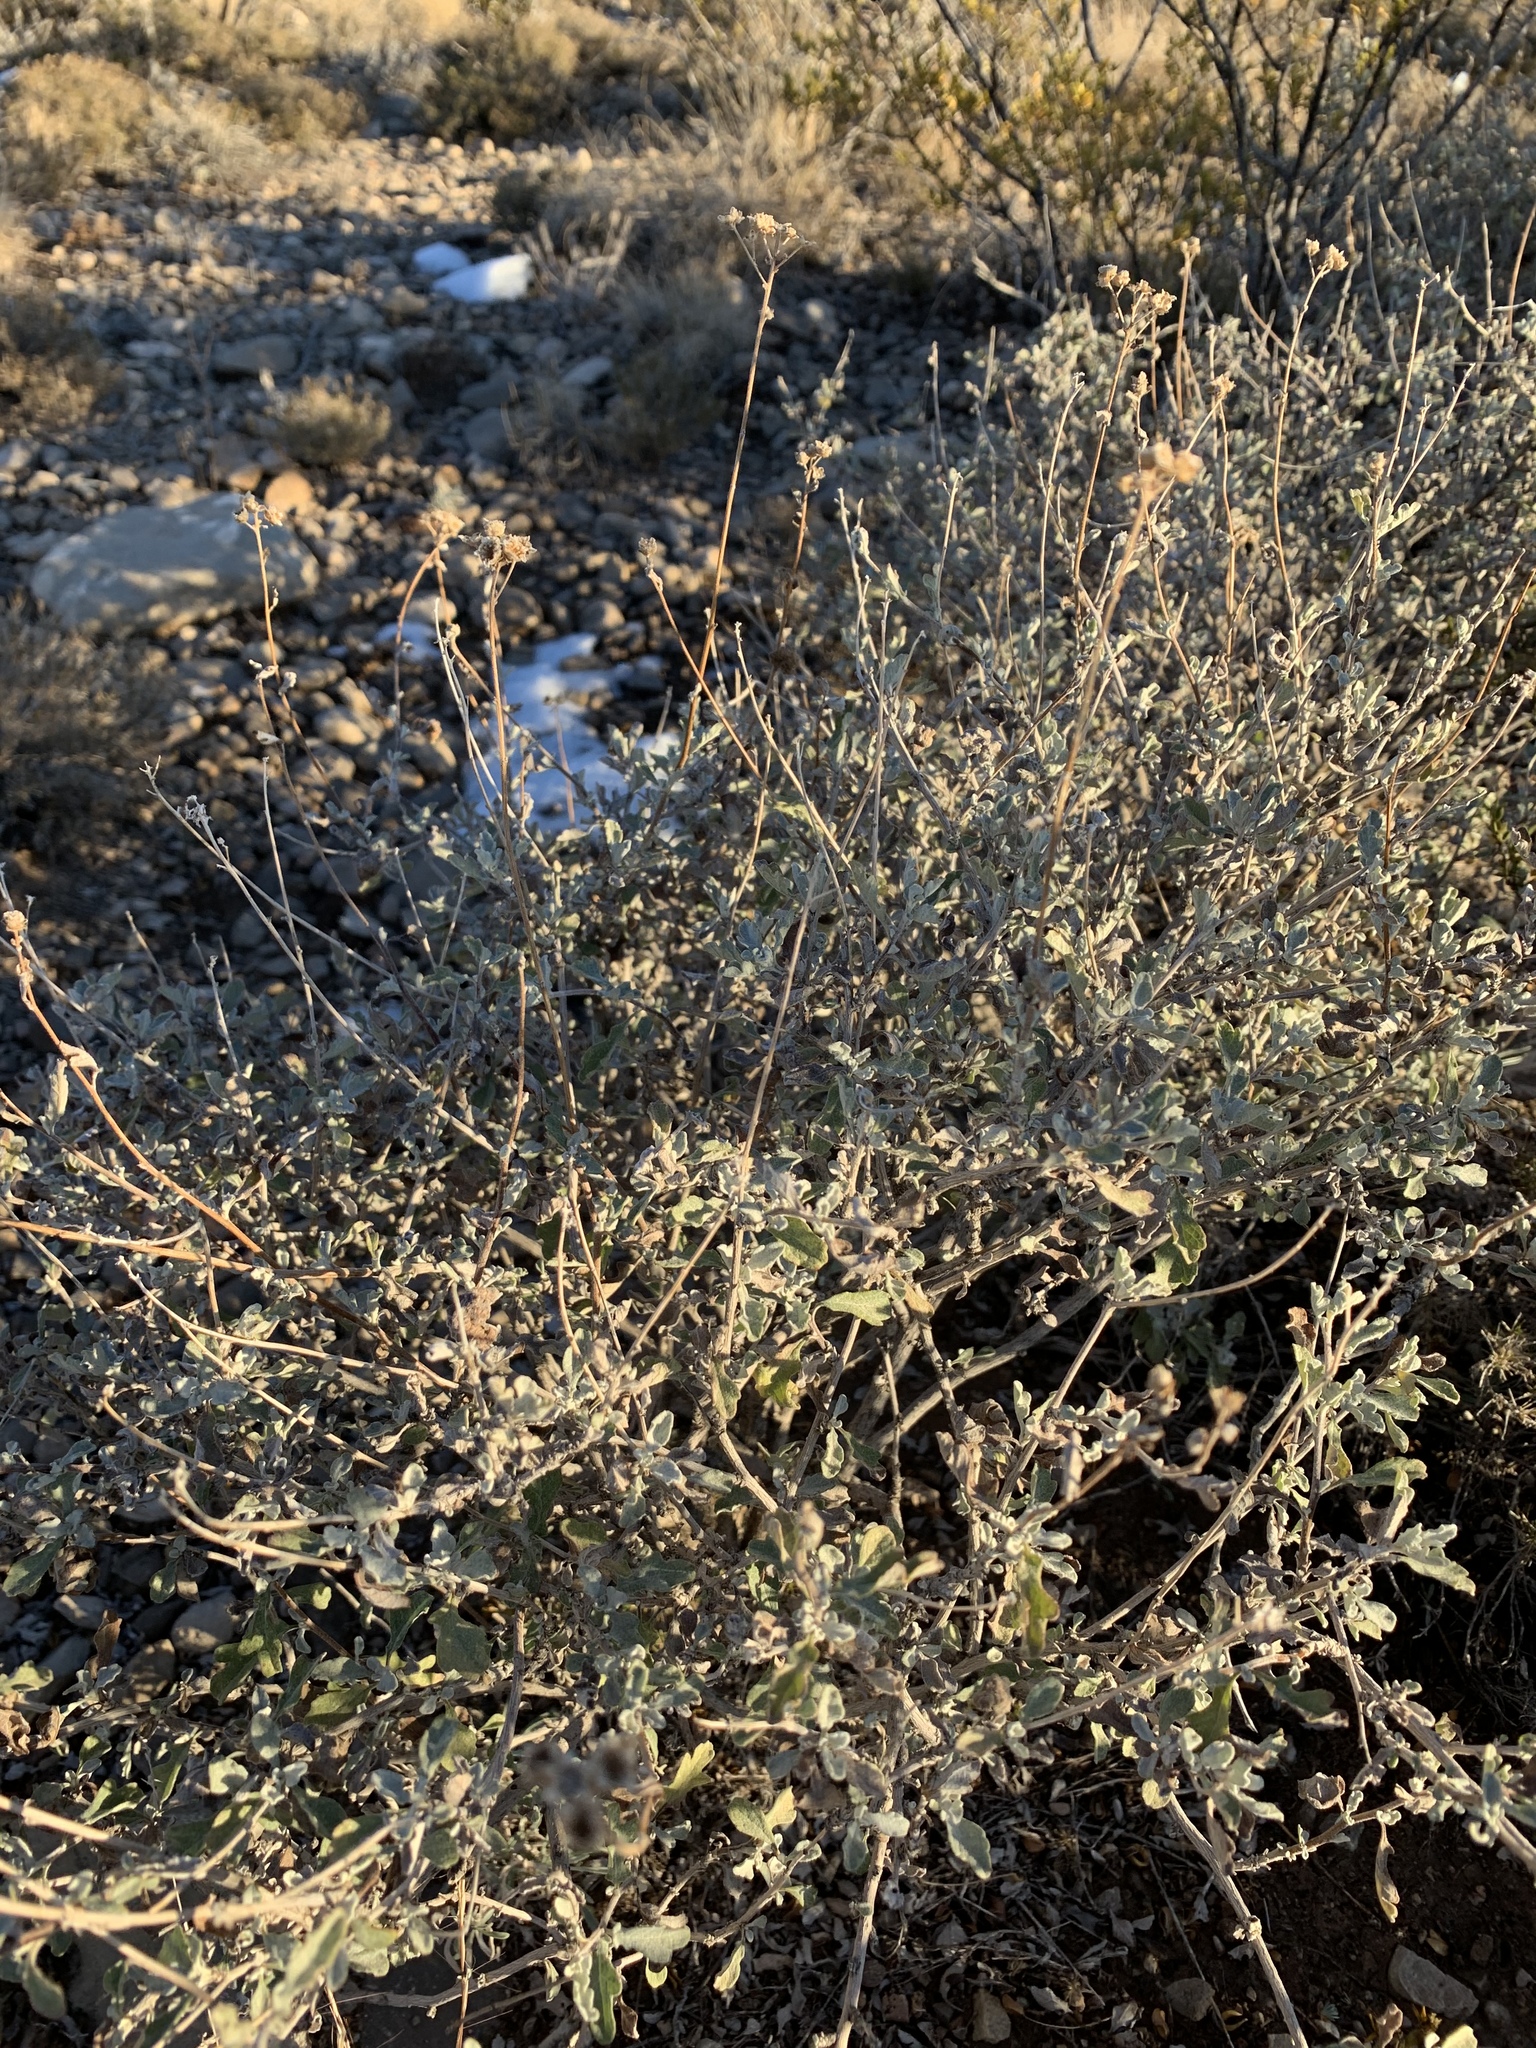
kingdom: Plantae
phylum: Tracheophyta
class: Magnoliopsida
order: Asterales
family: Asteraceae
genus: Parthenium
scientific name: Parthenium incanum
